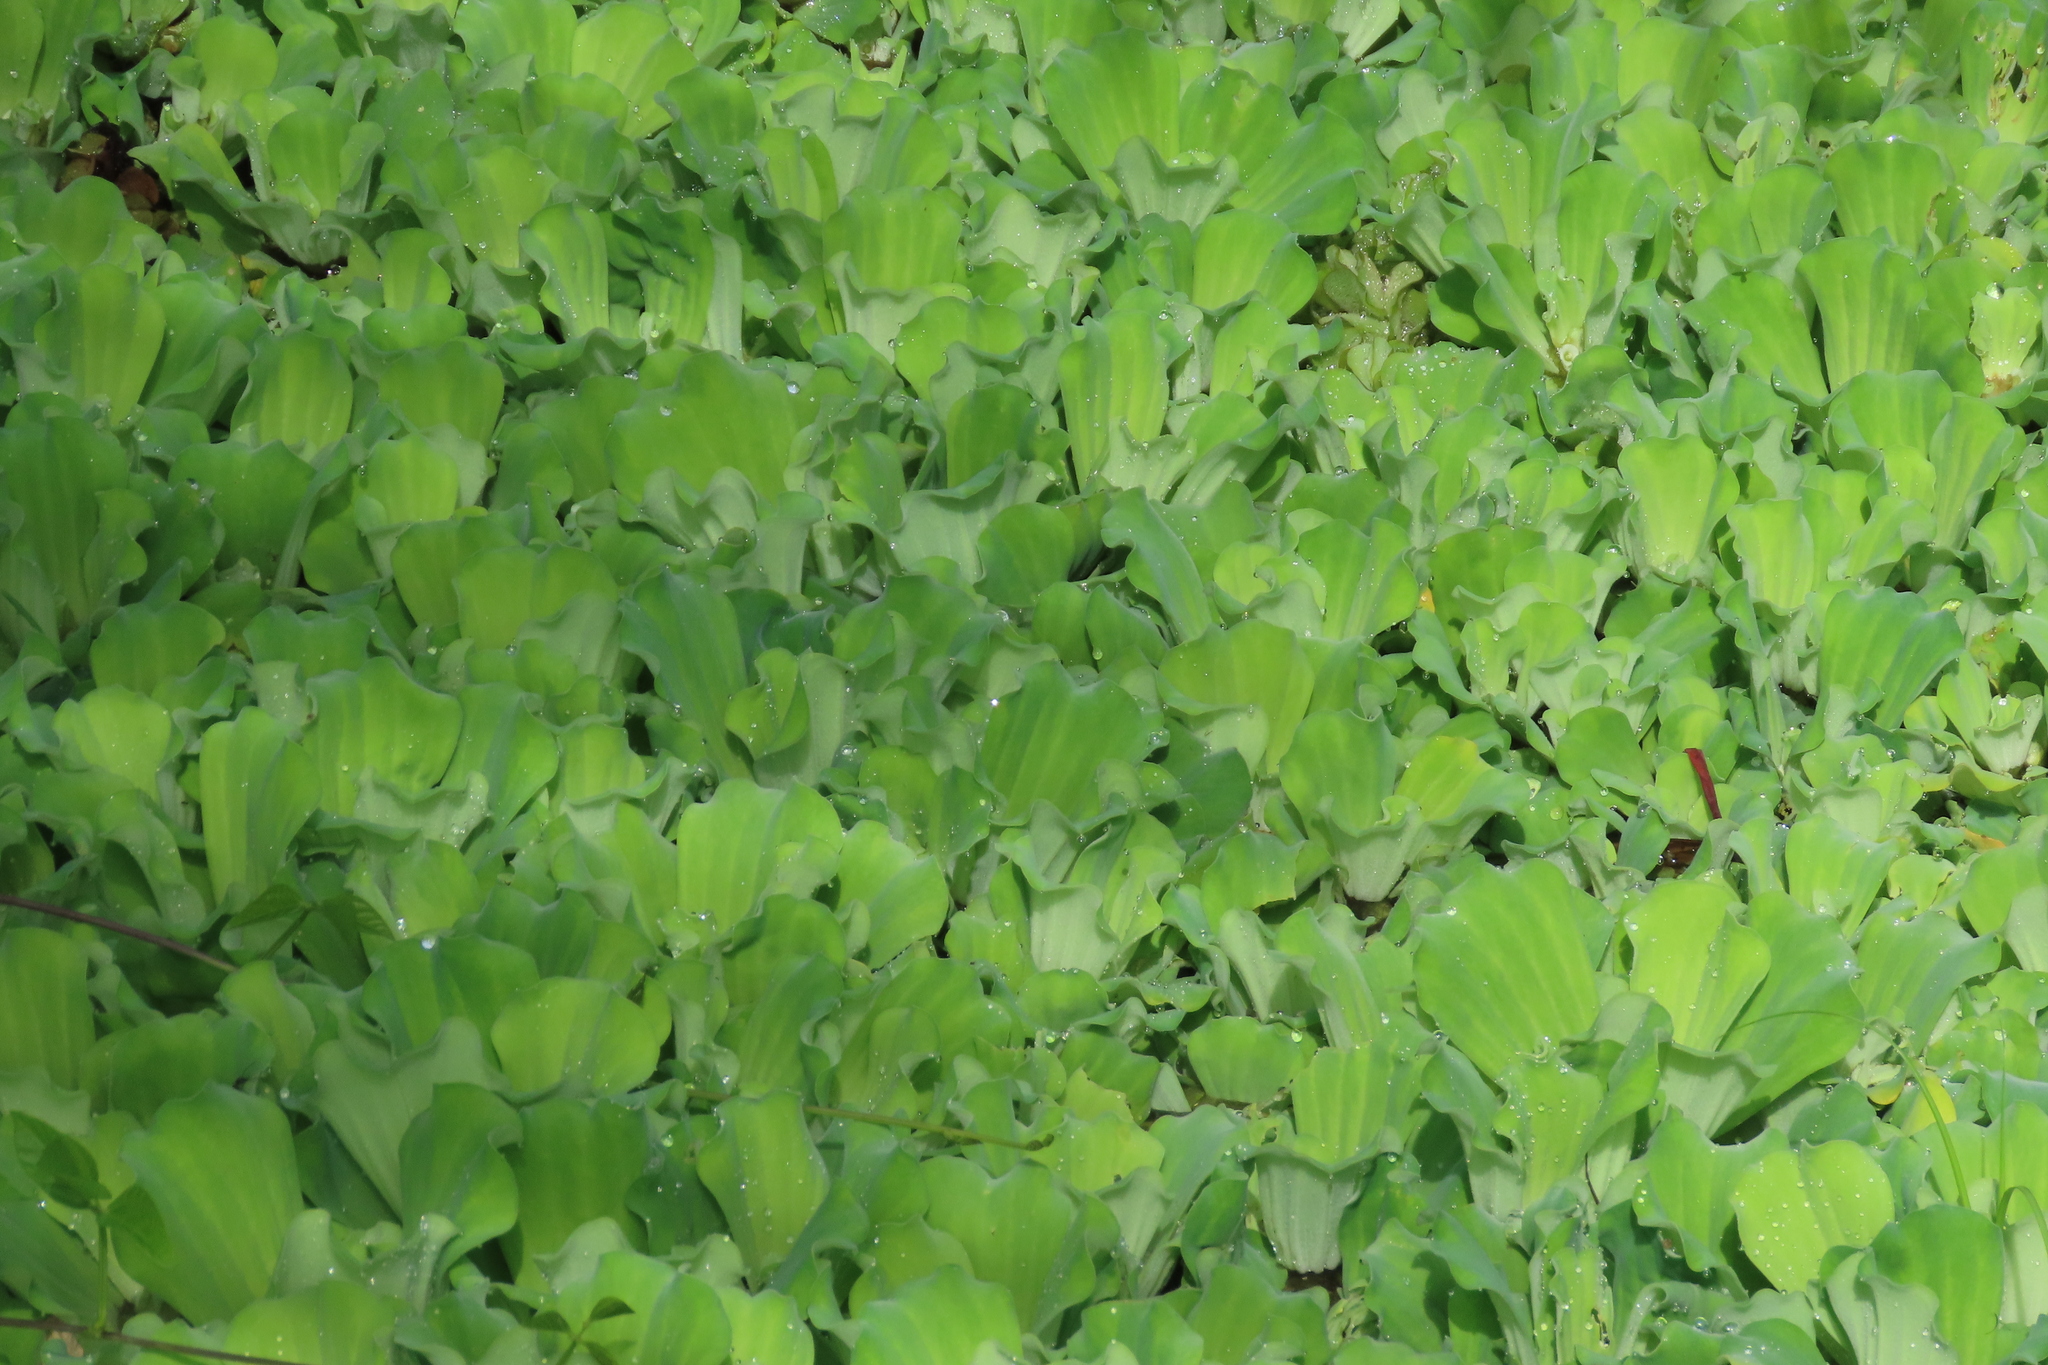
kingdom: Plantae
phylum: Tracheophyta
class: Liliopsida
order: Alismatales
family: Araceae
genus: Pistia
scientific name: Pistia stratiotes
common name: Water lettuce
